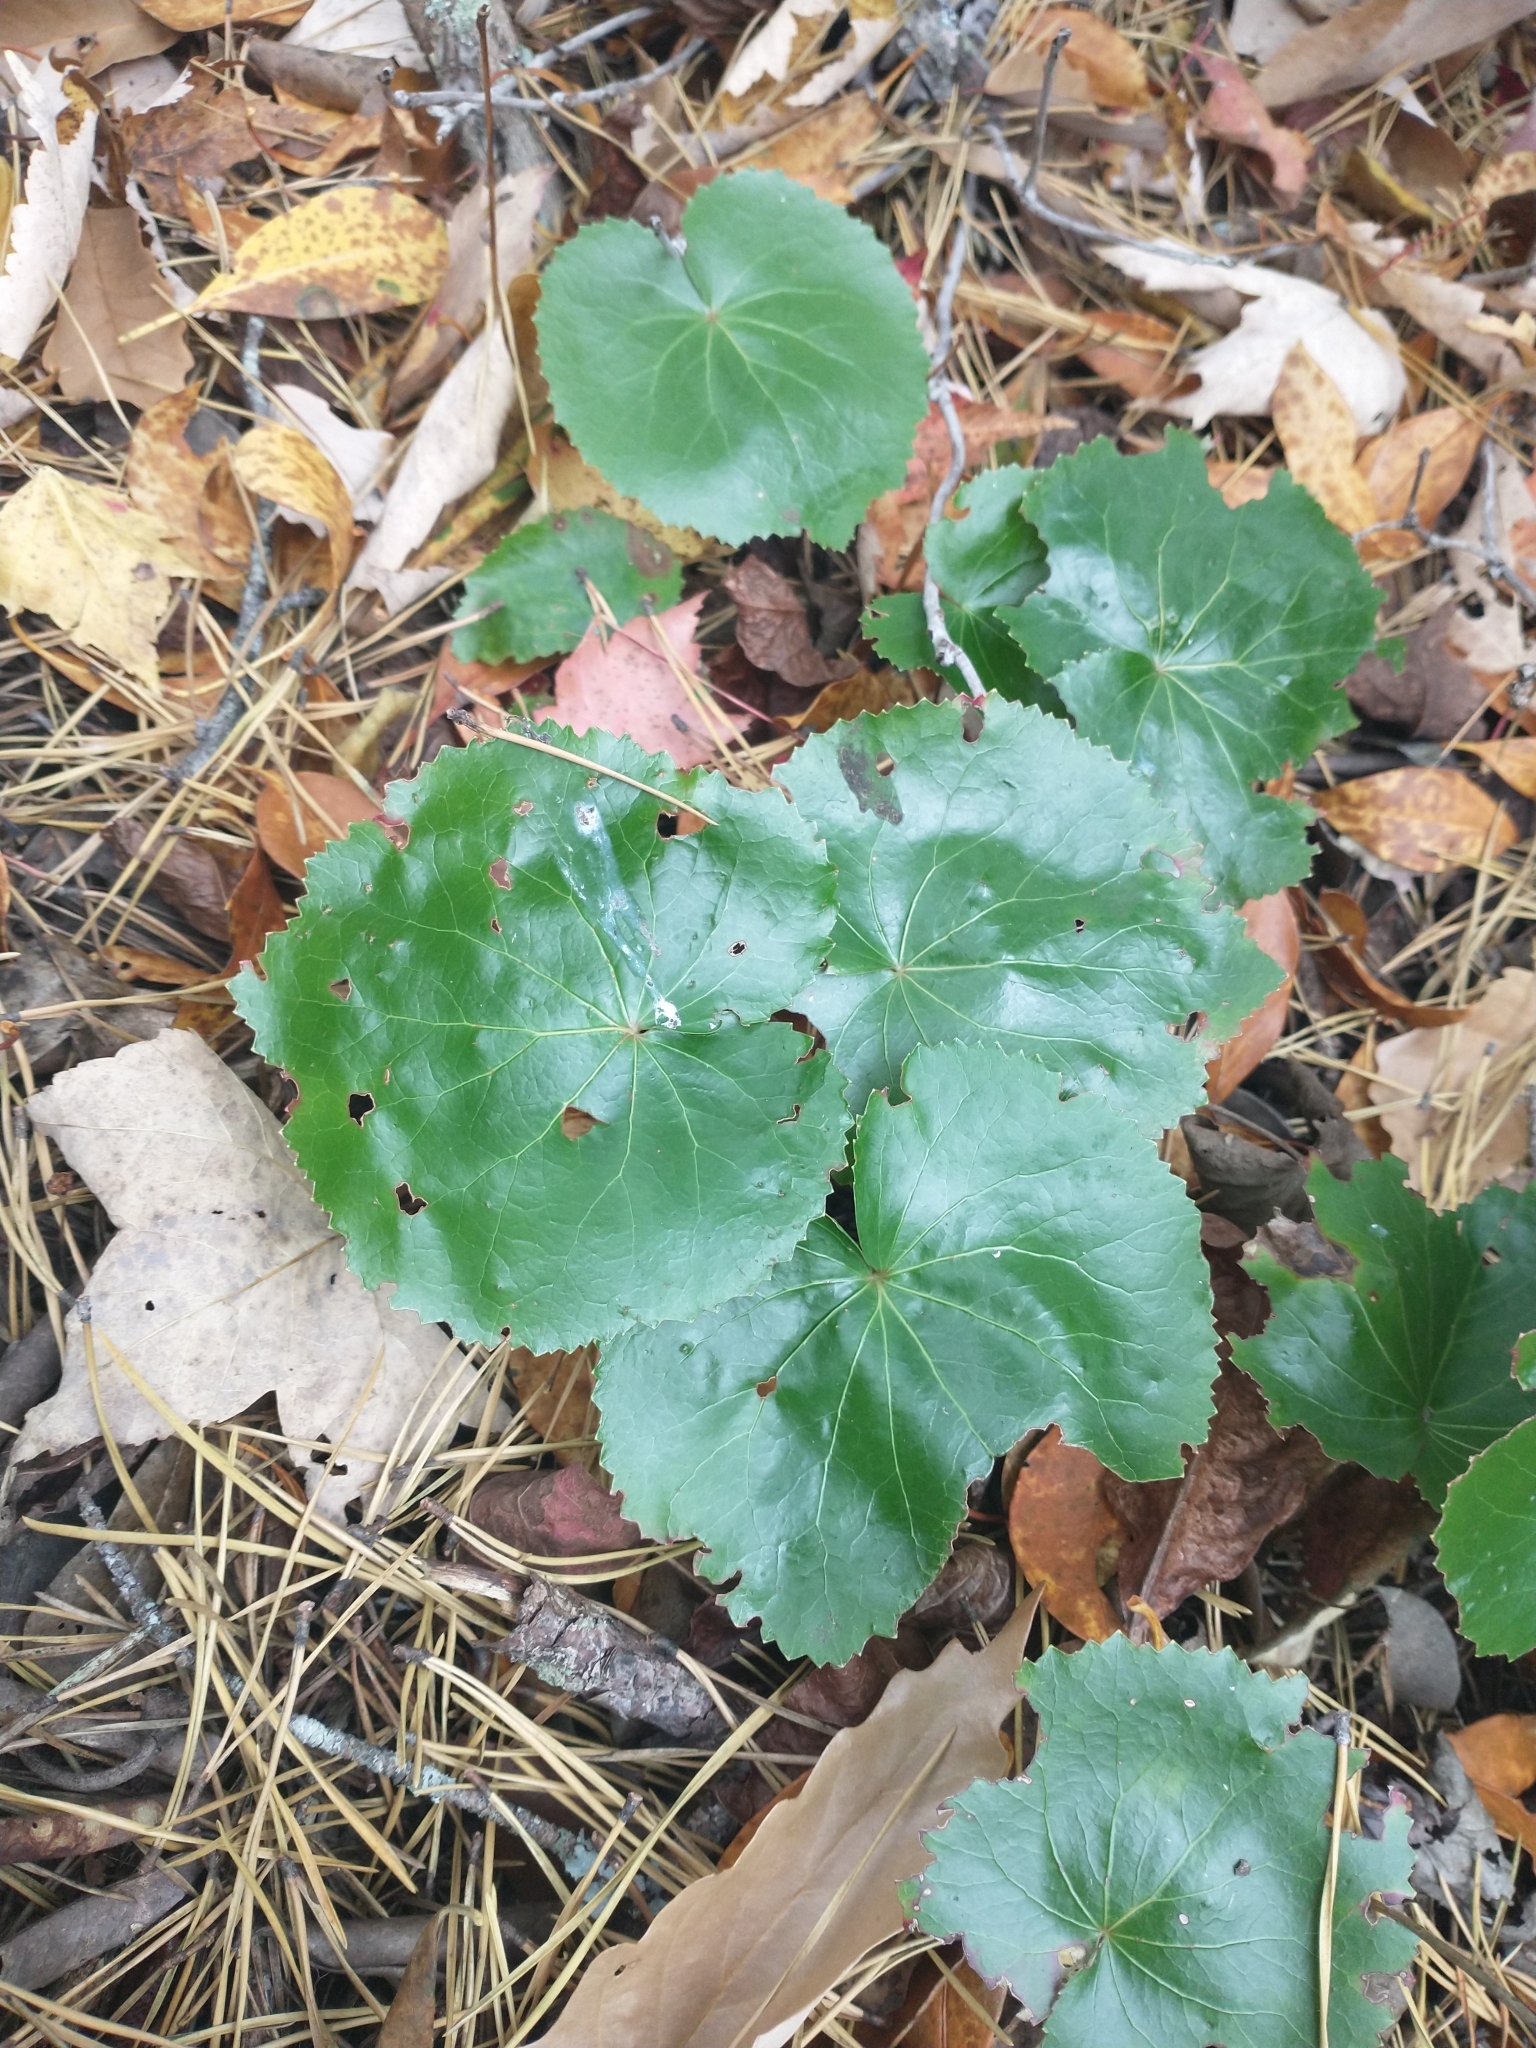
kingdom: Plantae
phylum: Tracheophyta
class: Magnoliopsida
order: Ericales
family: Diapensiaceae
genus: Galax
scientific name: Galax urceolata
